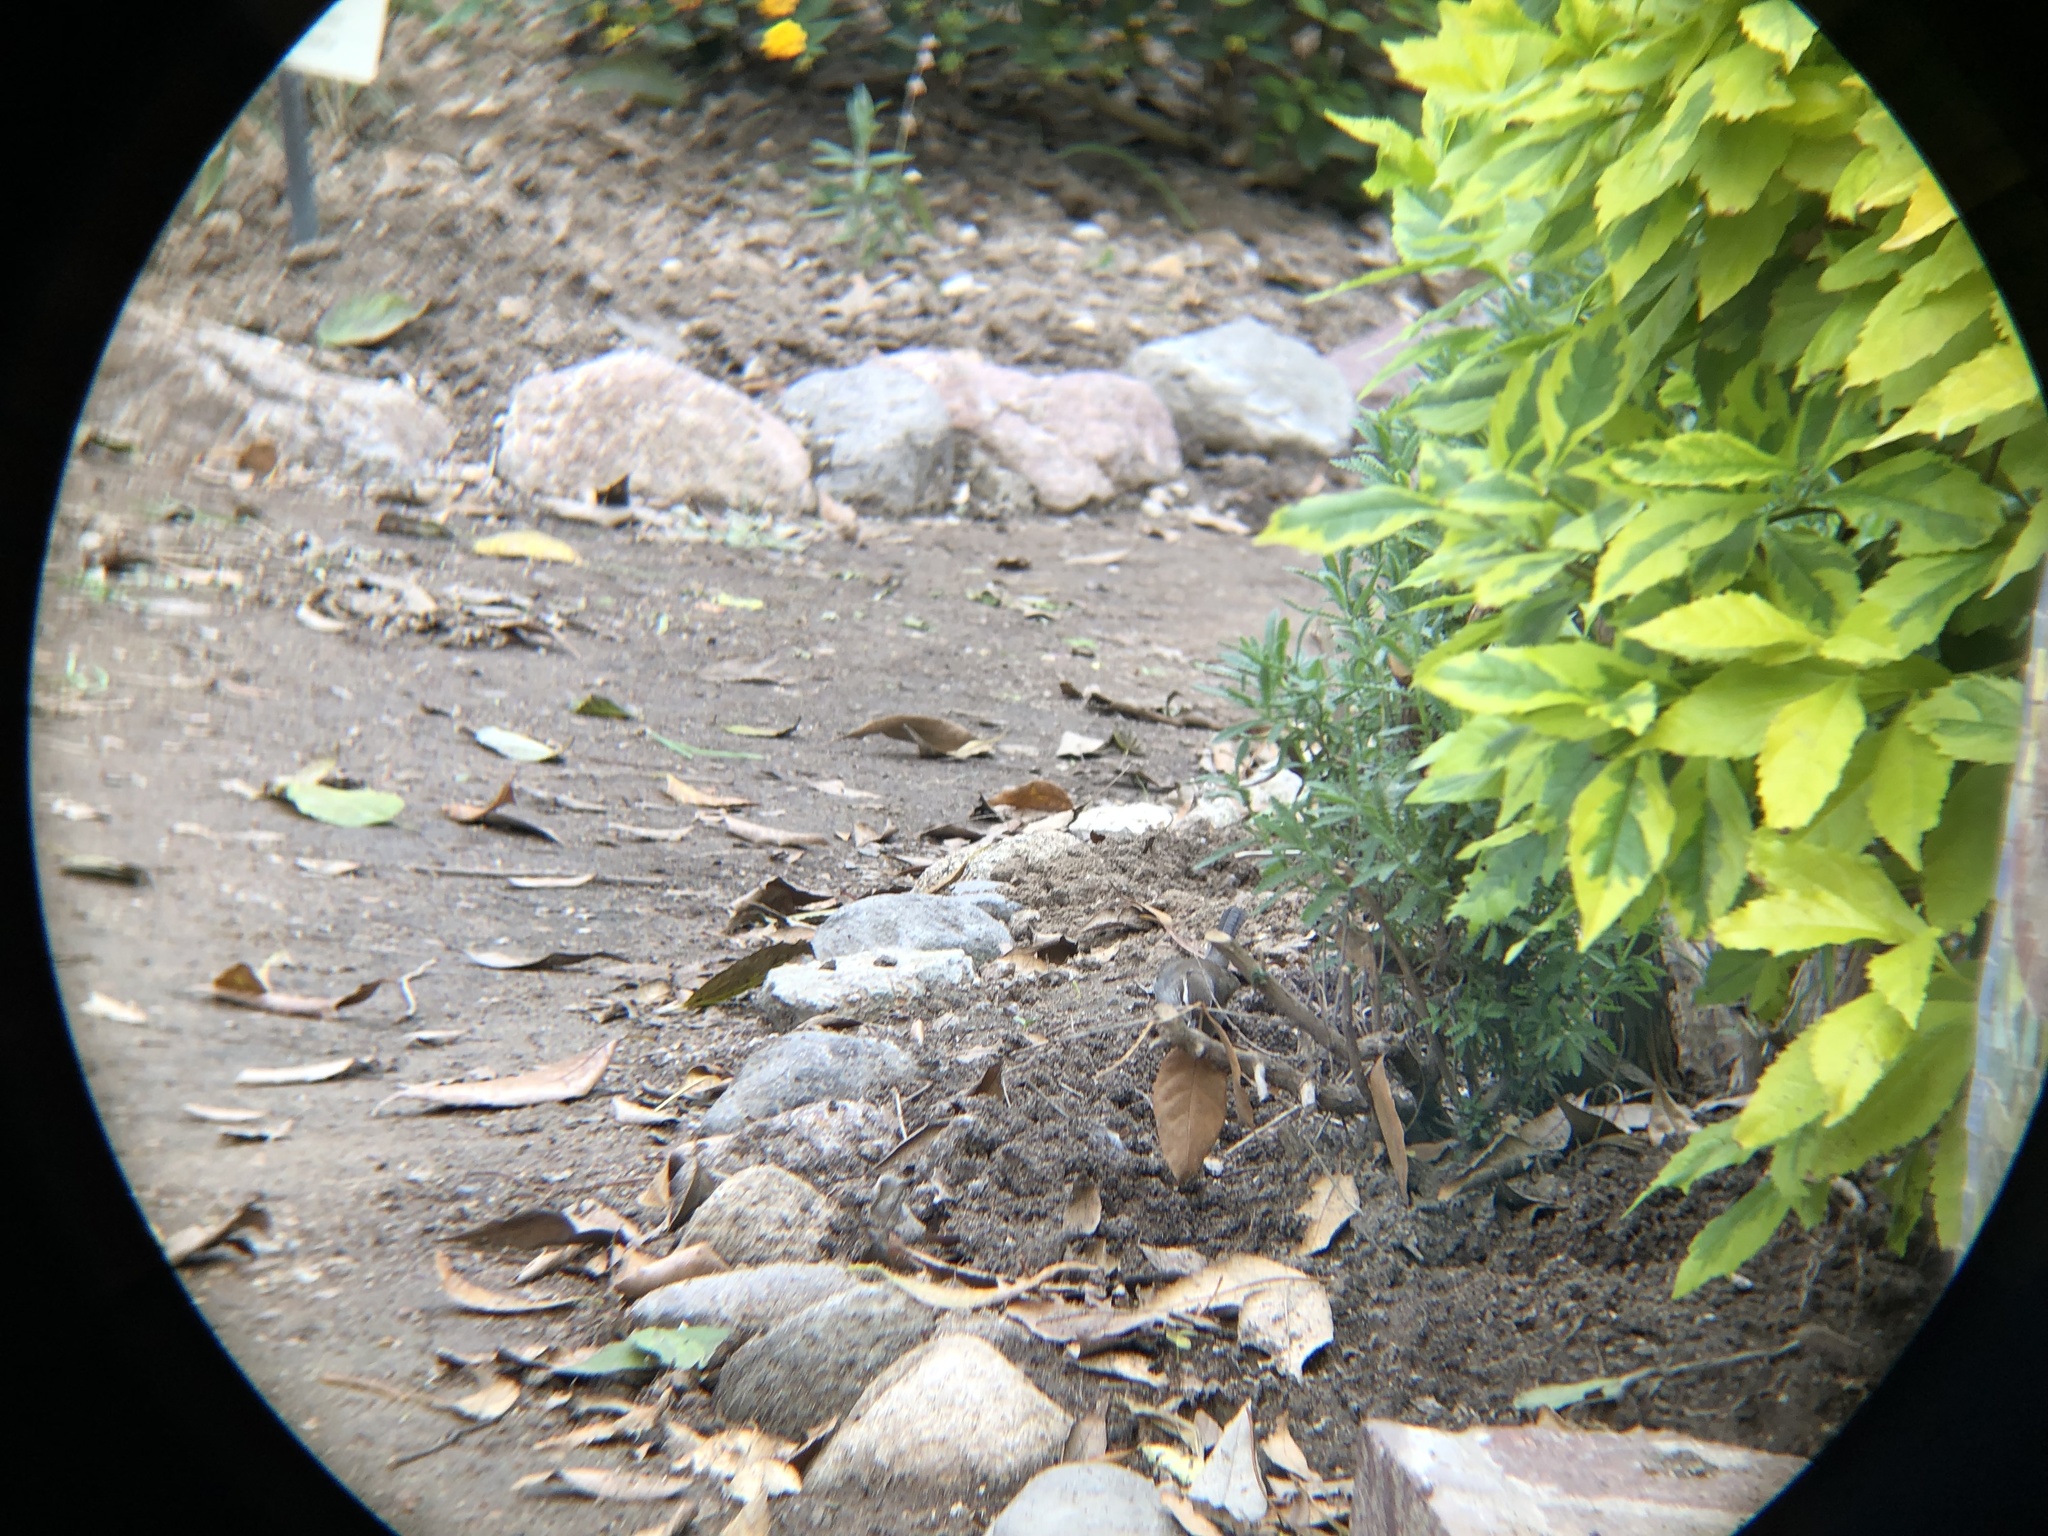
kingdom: Animalia
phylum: Chordata
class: Aves
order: Passeriformes
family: Troglodytidae
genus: Thryomanes
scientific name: Thryomanes bewickii
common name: Bewick's wren
